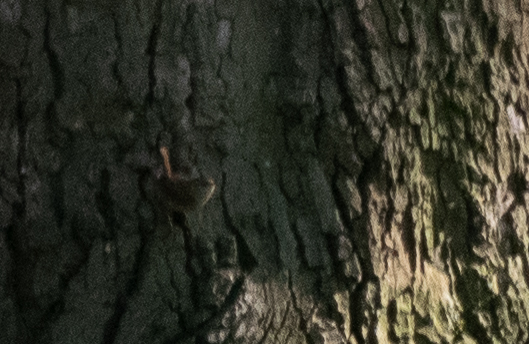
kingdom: Animalia
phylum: Chordata
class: Aves
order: Passeriformes
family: Troglodytidae
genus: Troglodytes
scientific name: Troglodytes troglodytes
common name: Eurasian wren
